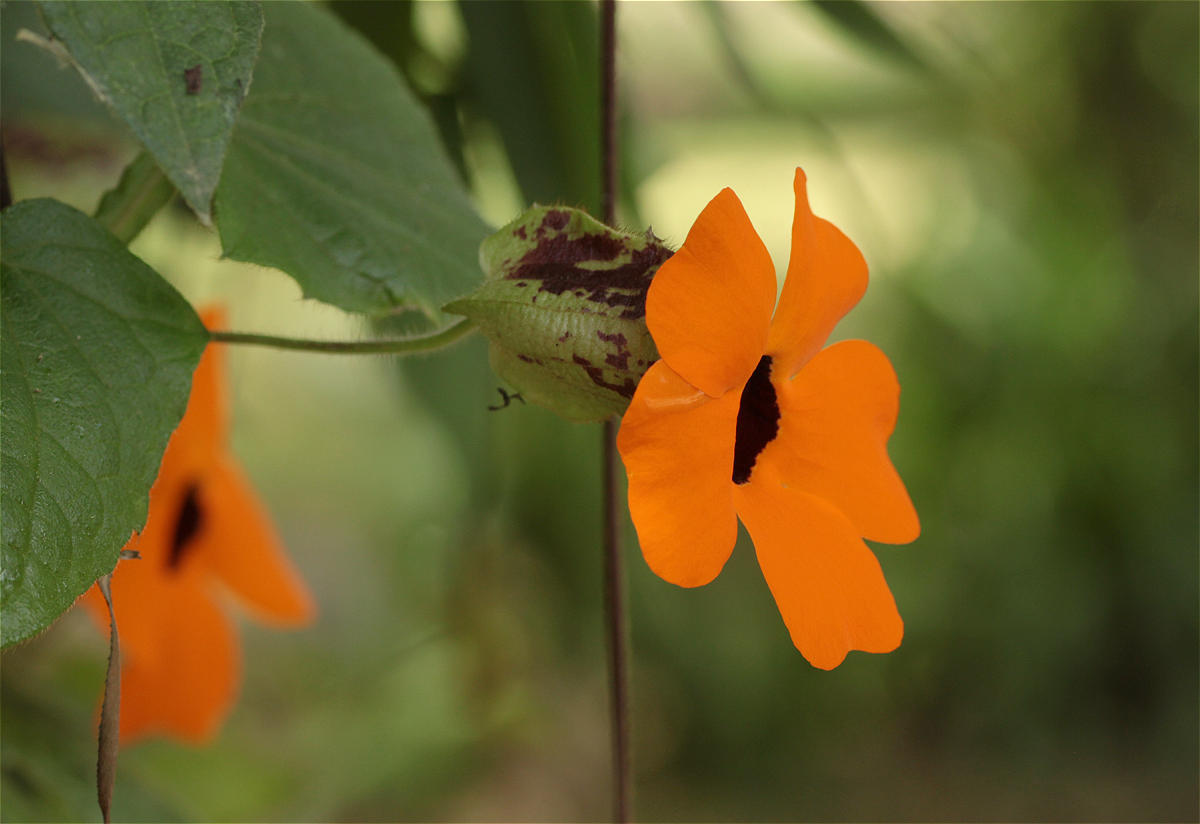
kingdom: Plantae
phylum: Tracheophyta
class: Magnoliopsida
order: Lamiales
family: Acanthaceae
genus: Thunbergia
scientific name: Thunbergia alata
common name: Blackeyed susan vine
